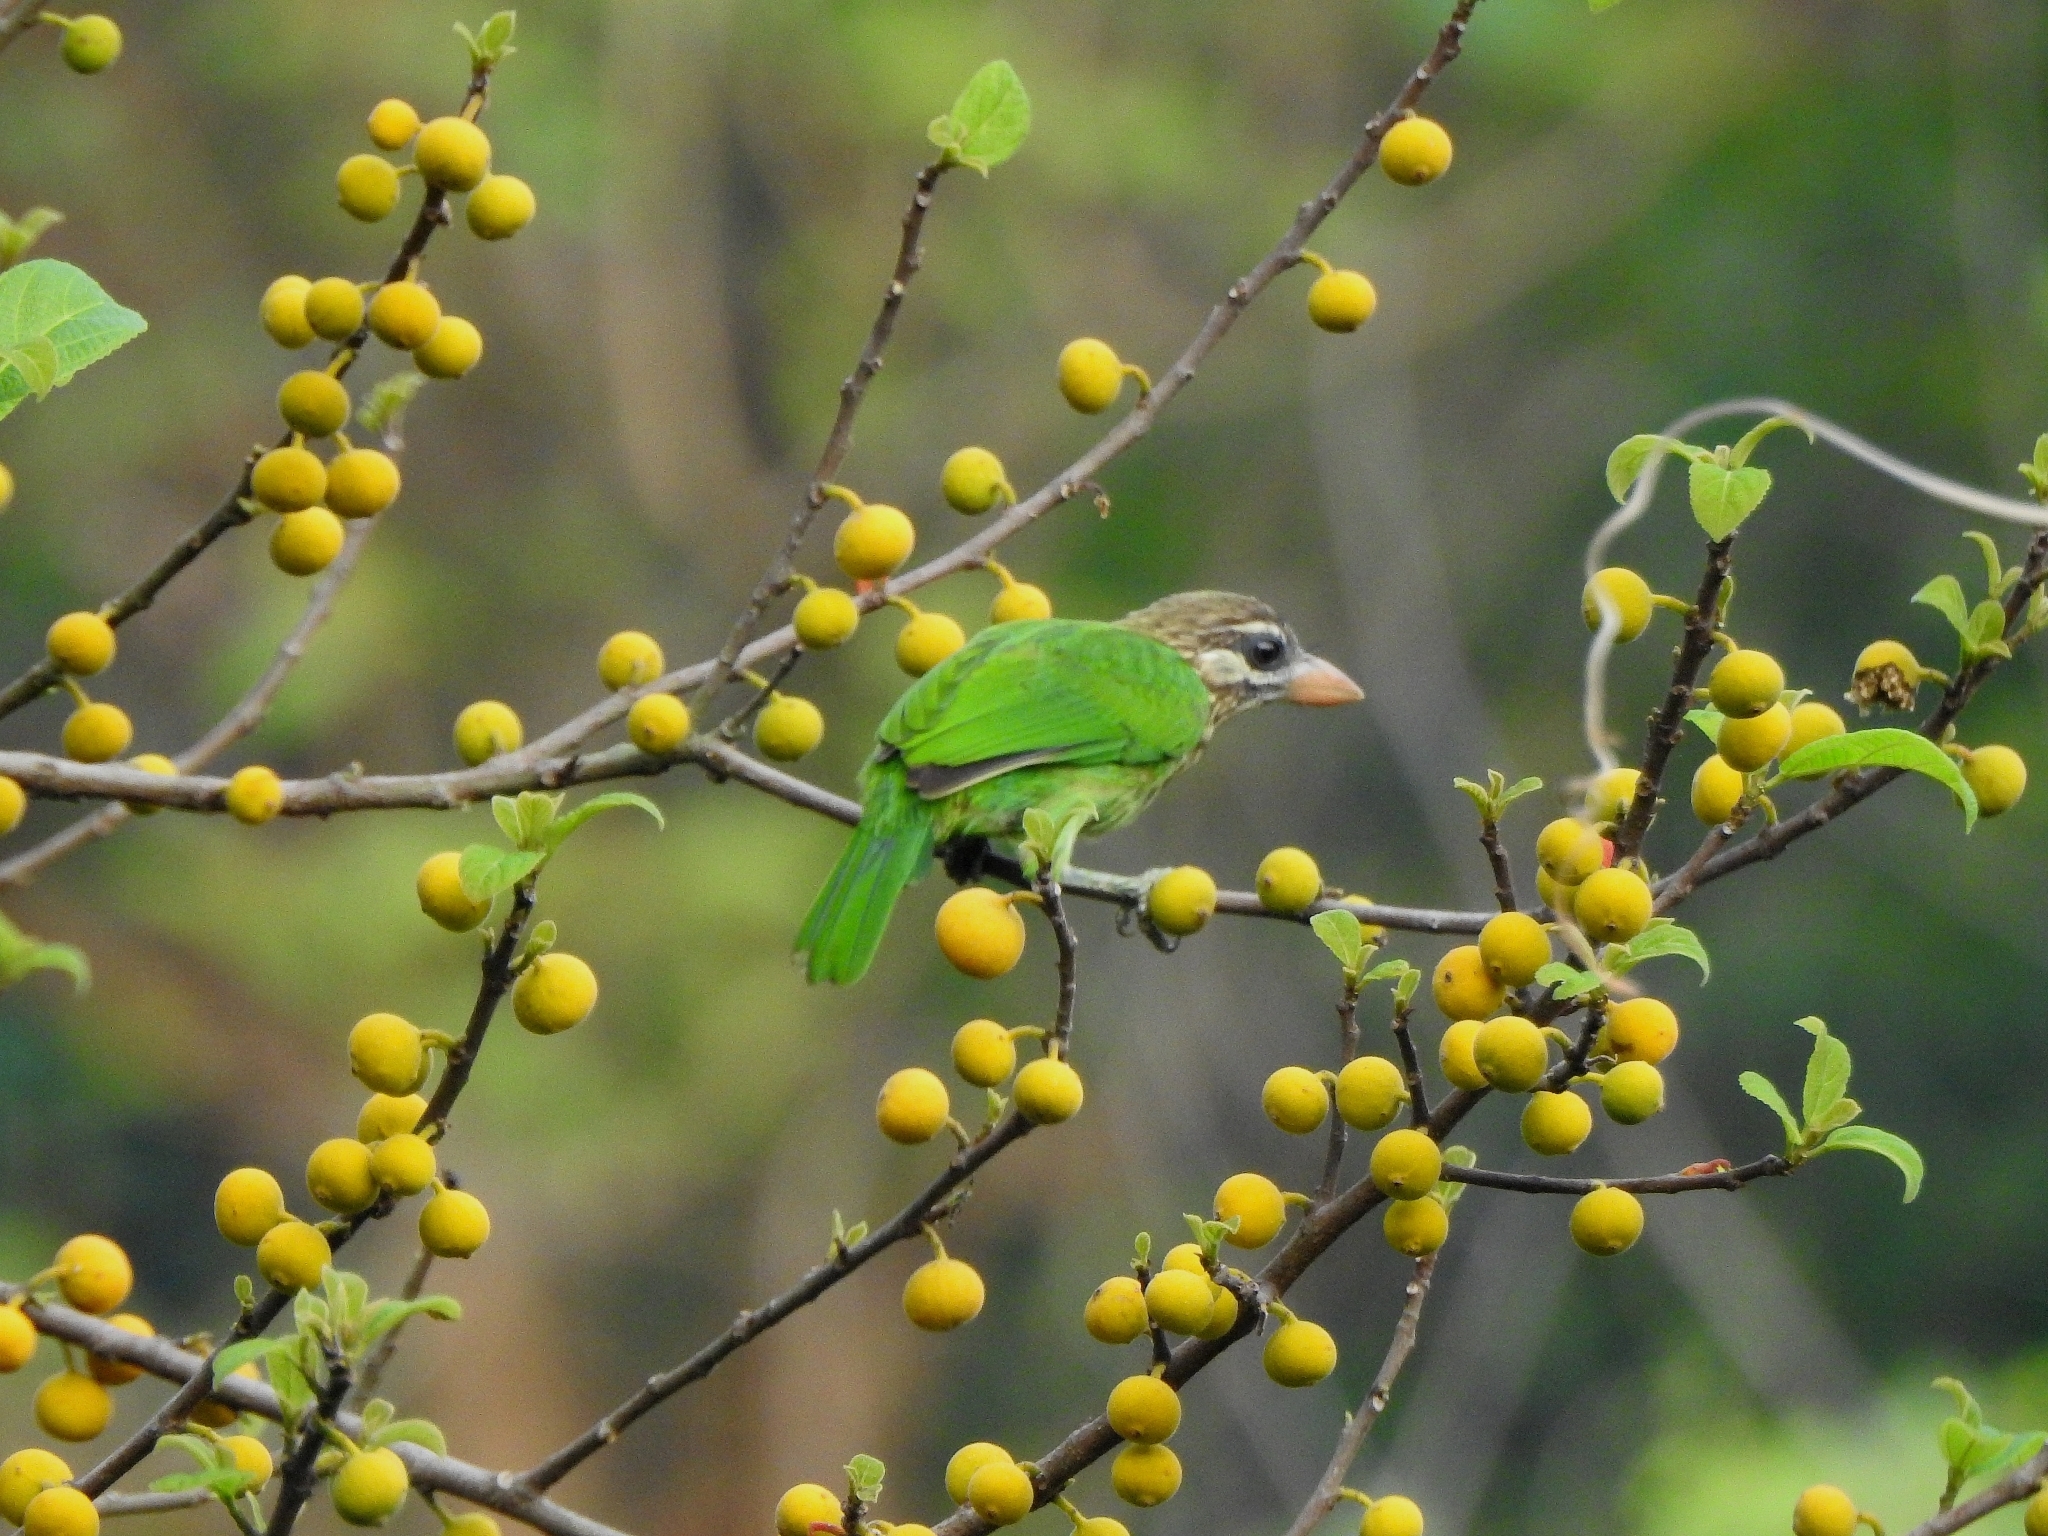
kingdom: Animalia
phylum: Chordata
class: Aves
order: Piciformes
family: Megalaimidae
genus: Psilopogon
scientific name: Psilopogon viridis
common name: White-cheeked barbet
